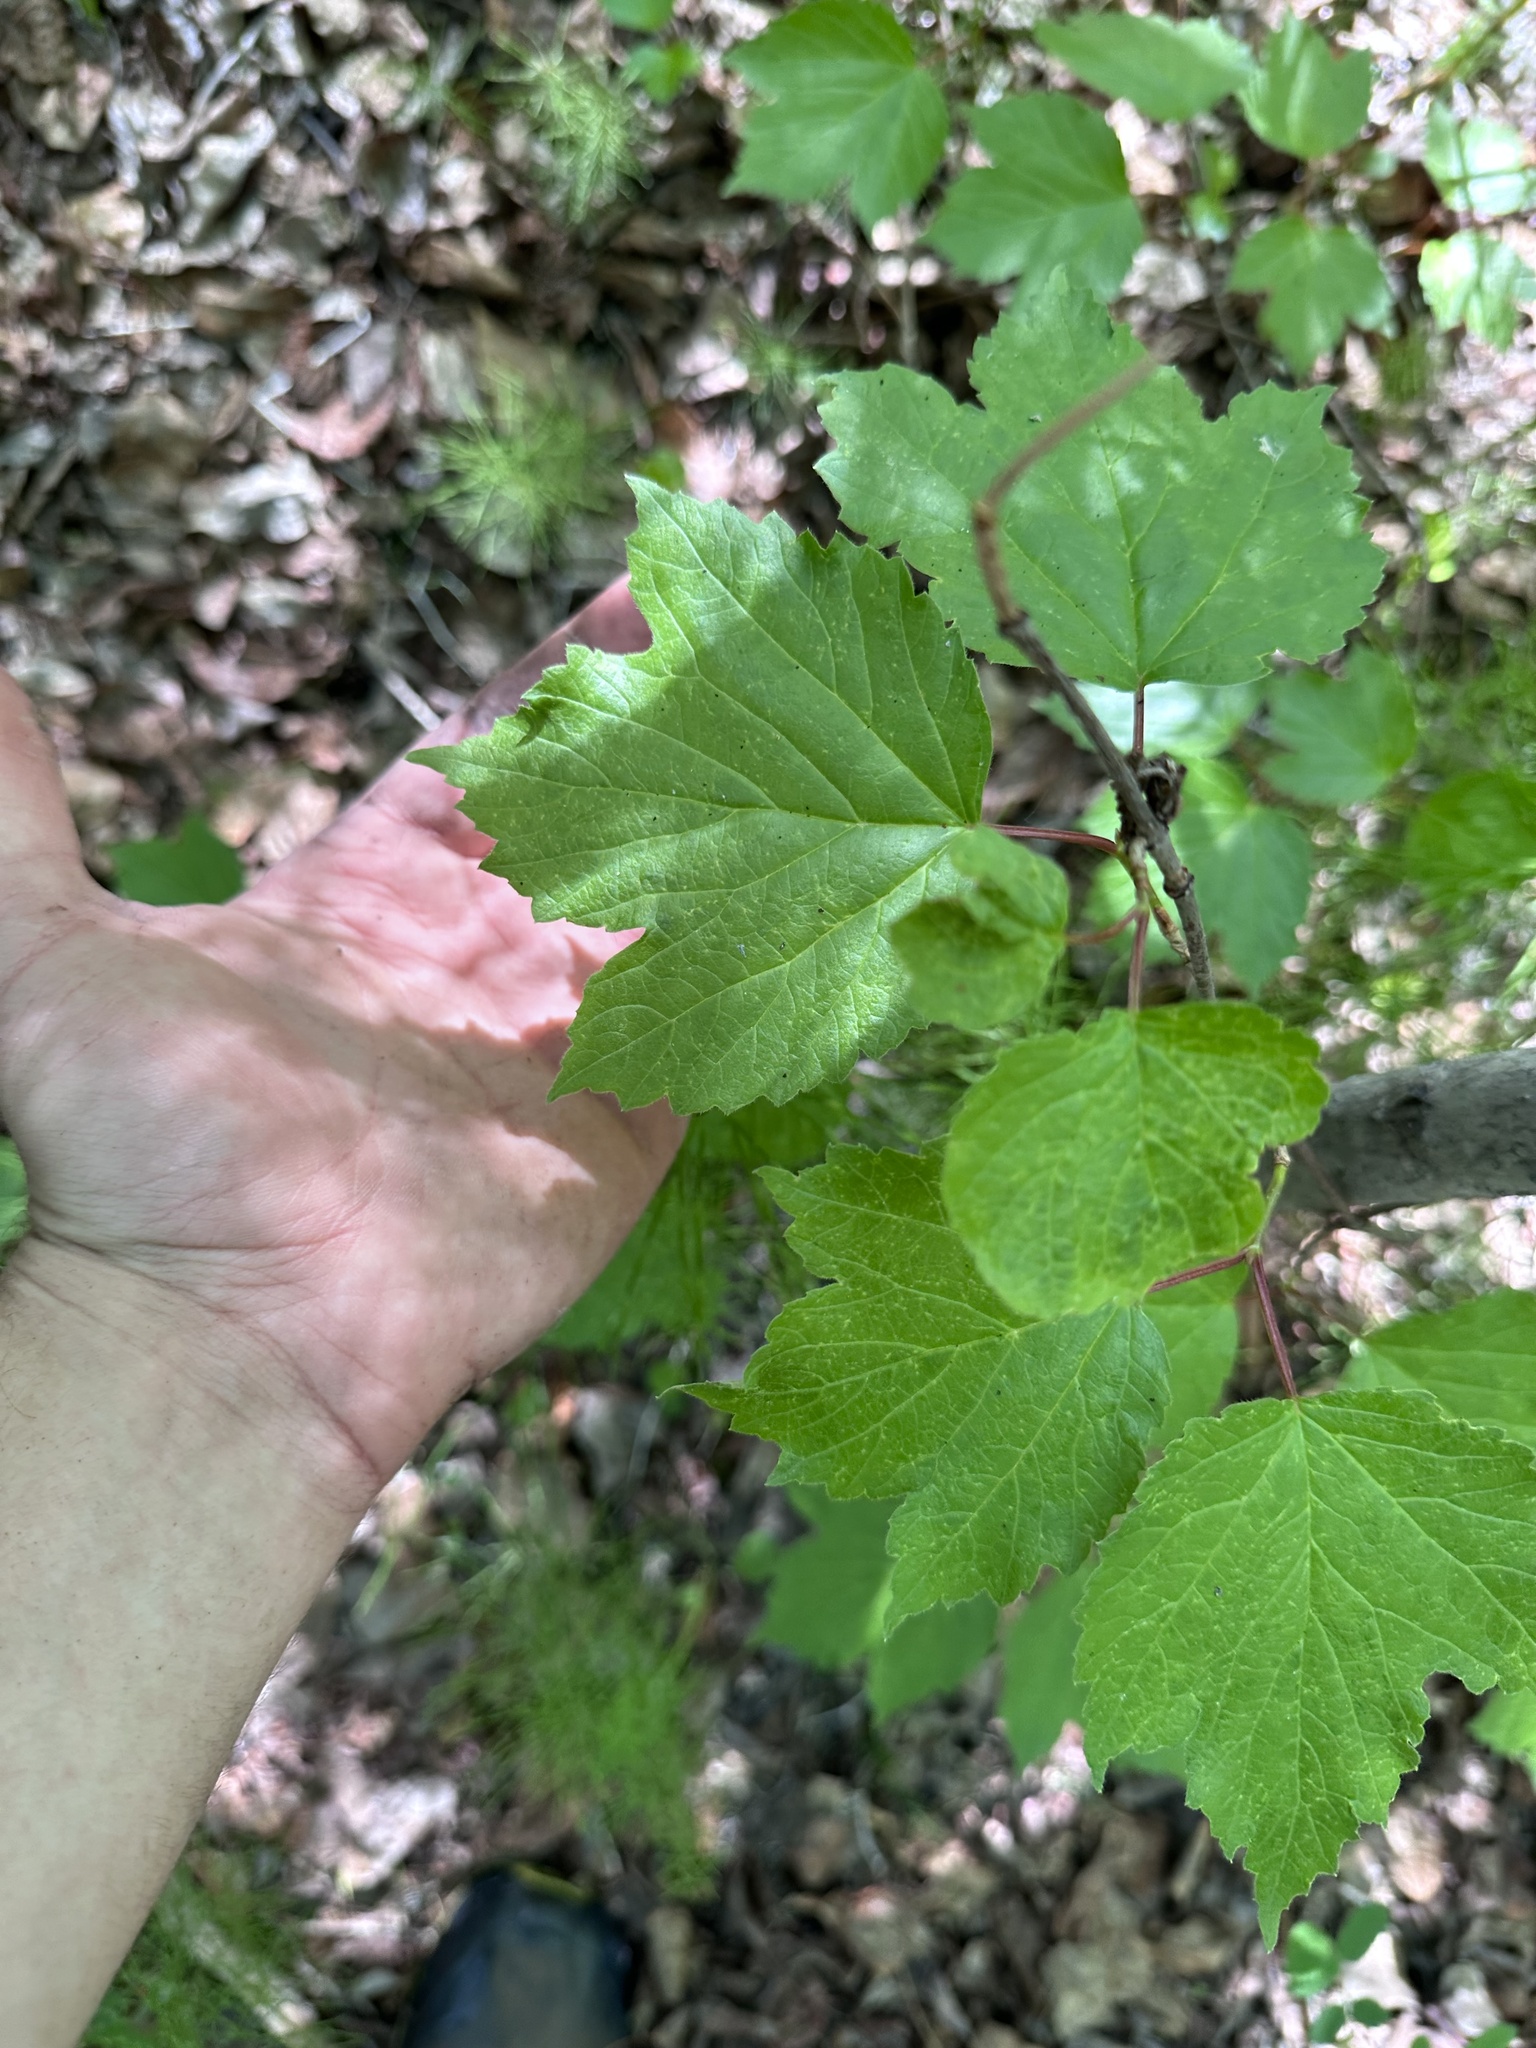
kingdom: Plantae
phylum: Tracheophyta
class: Magnoliopsida
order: Dipsacales
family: Viburnaceae
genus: Viburnum
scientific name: Viburnum edule
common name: Mooseberry
